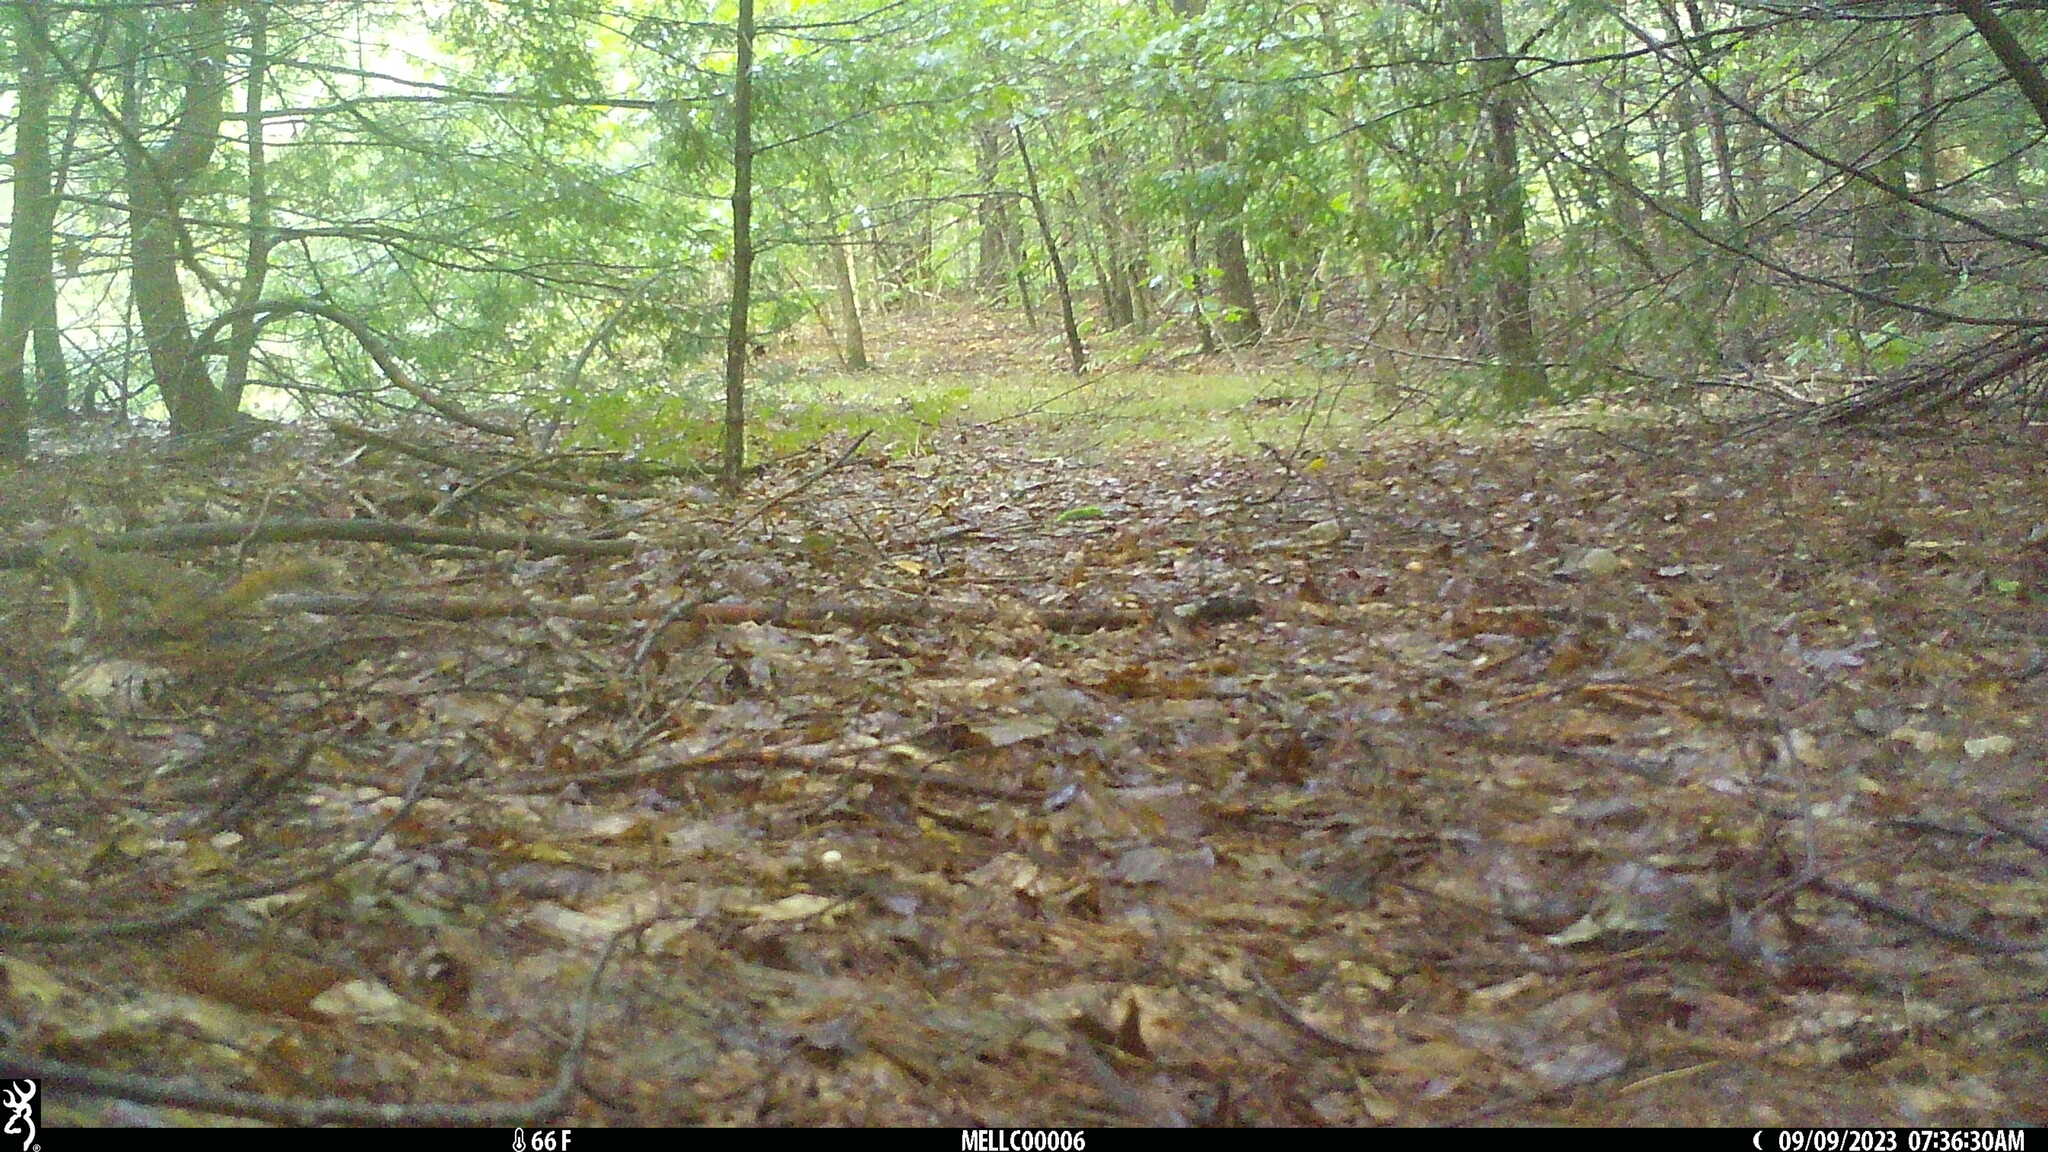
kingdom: Animalia
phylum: Chordata
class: Mammalia
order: Rodentia
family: Sciuridae
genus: Tamiasciurus
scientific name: Tamiasciurus hudsonicus
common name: Red squirrel
